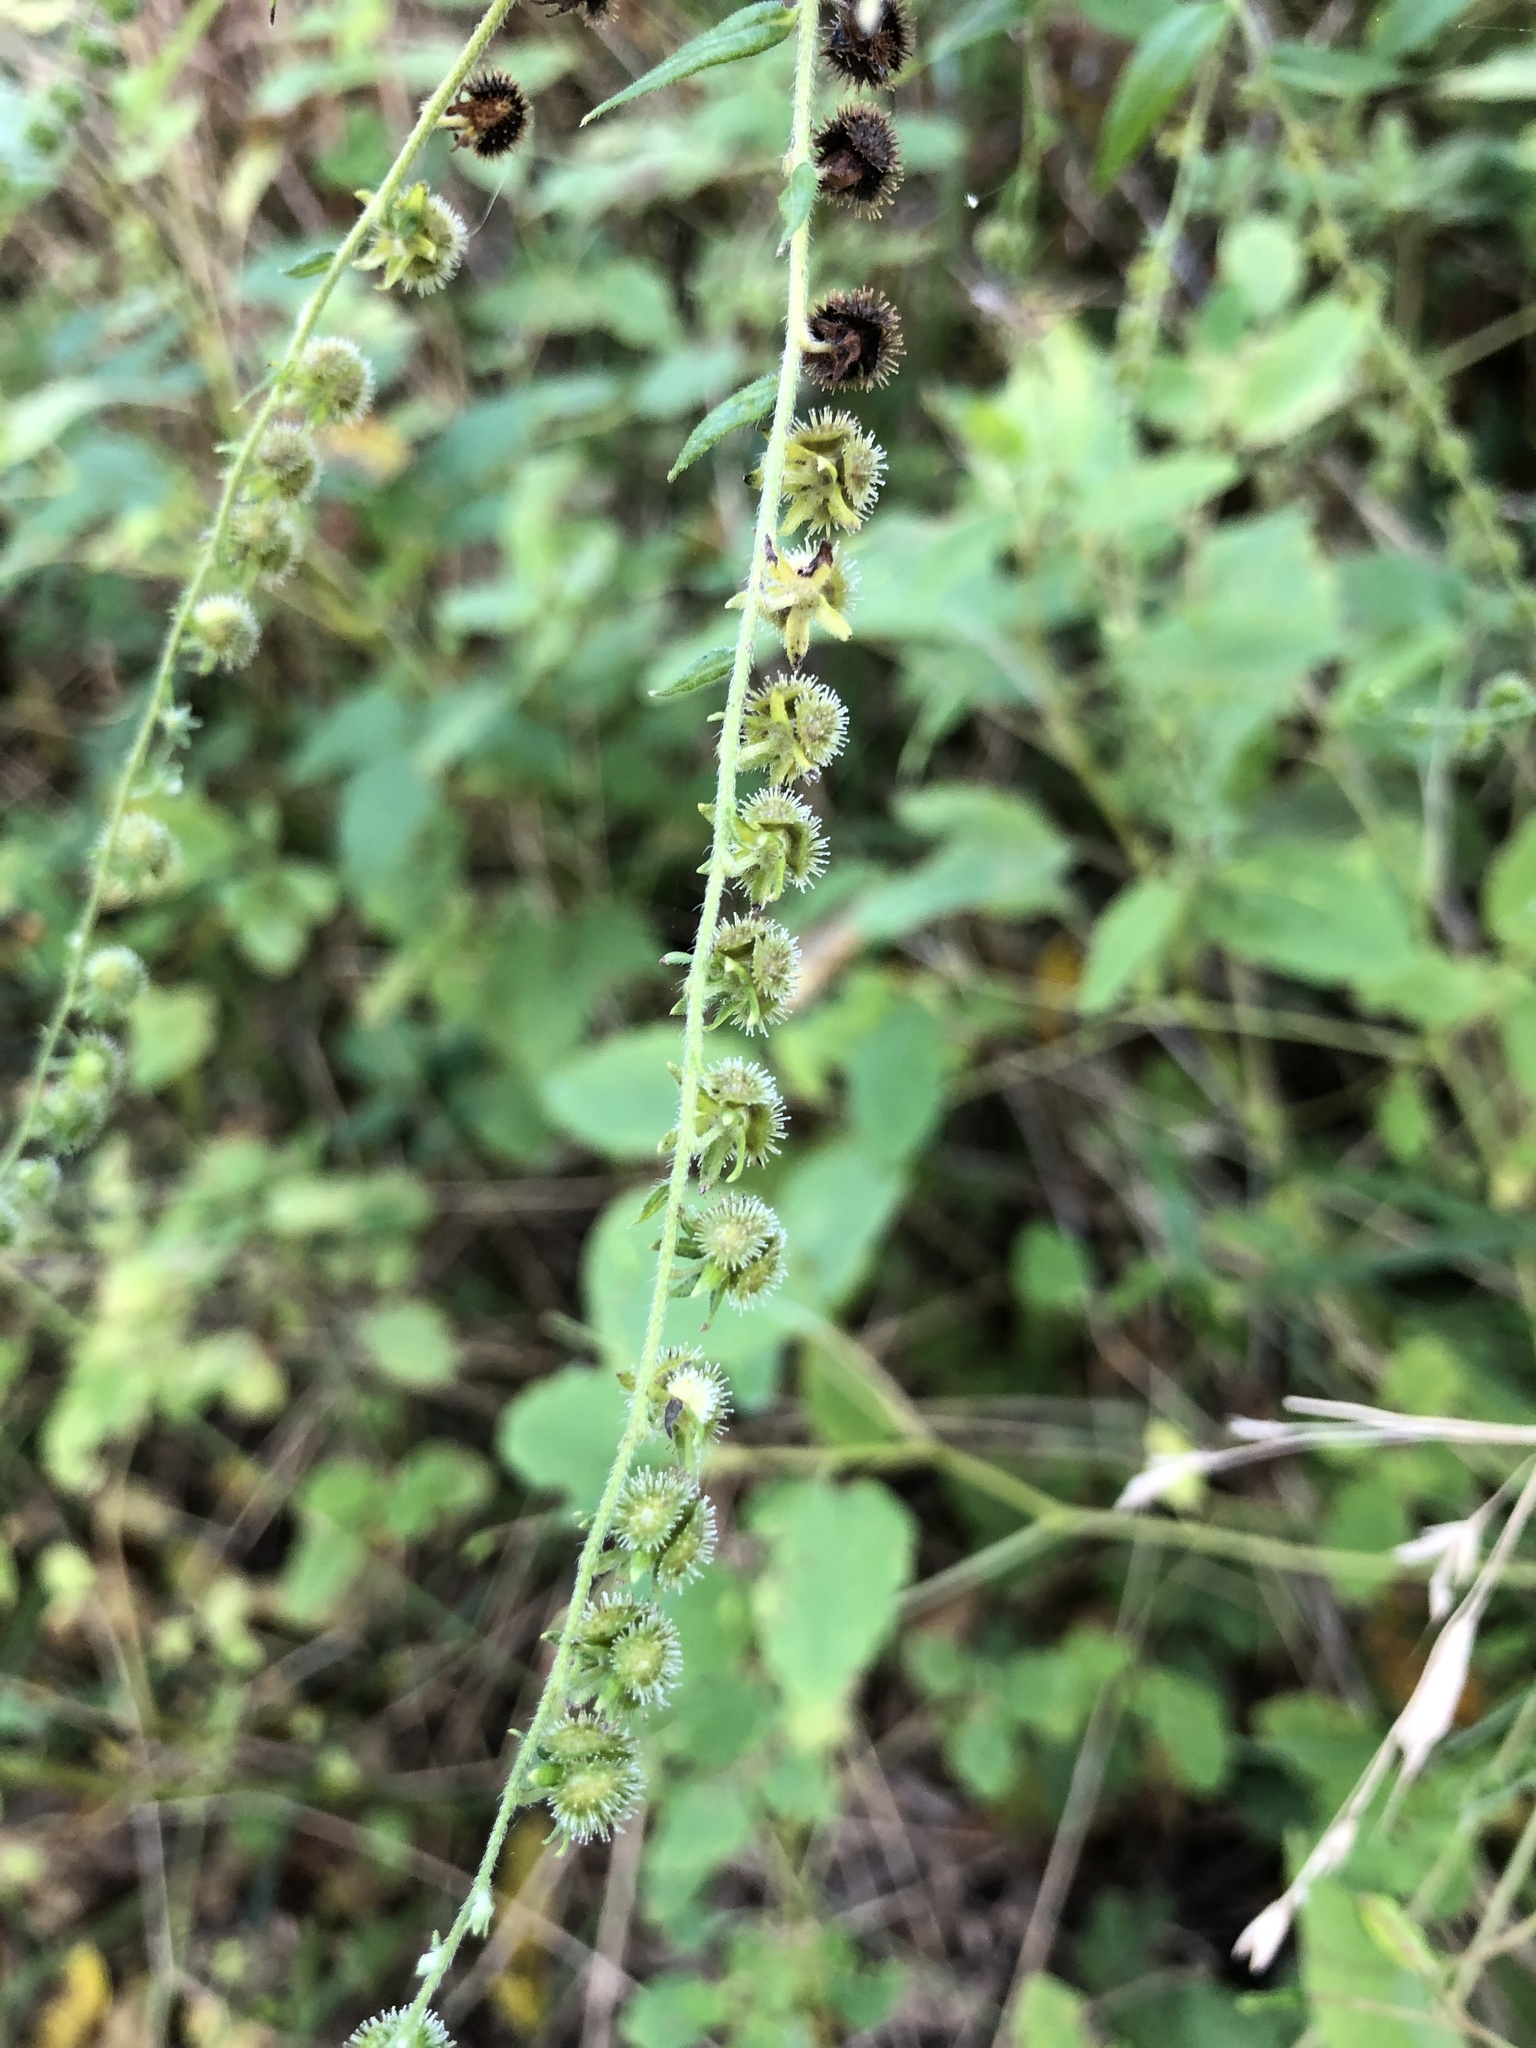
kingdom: Plantae
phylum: Tracheophyta
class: Magnoliopsida
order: Boraginales
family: Boraginaceae
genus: Hackelia
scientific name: Hackelia virginiana
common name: Beggar's-lice
